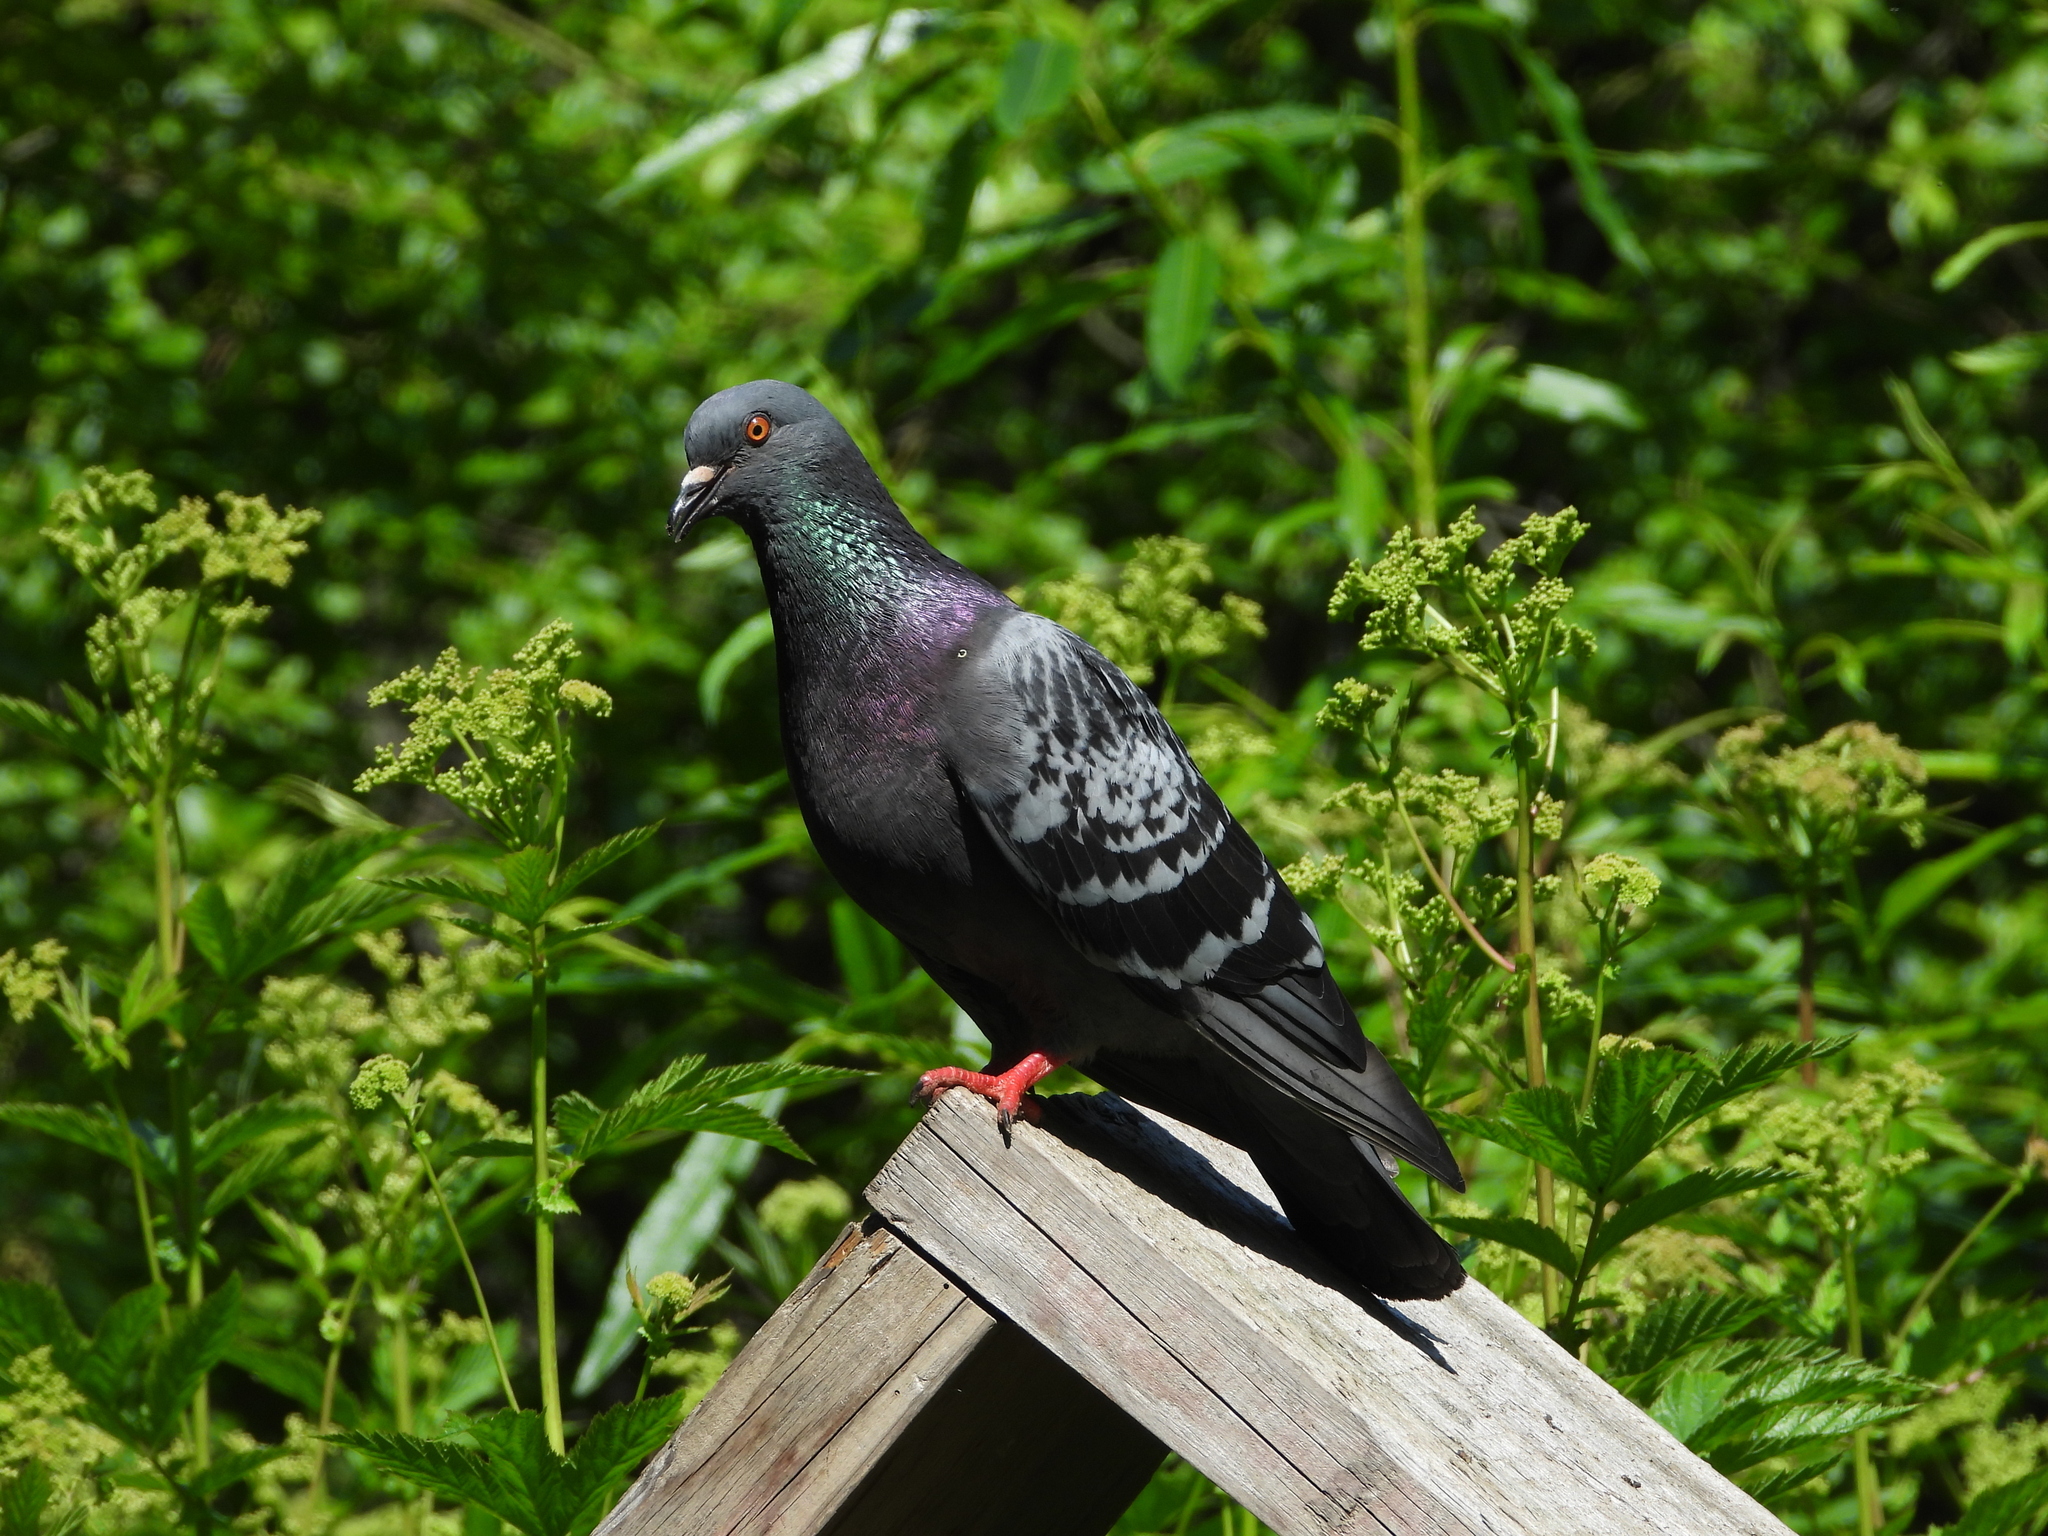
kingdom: Animalia
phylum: Chordata
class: Aves
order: Columbiformes
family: Columbidae
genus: Columba
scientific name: Columba livia
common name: Rock pigeon
